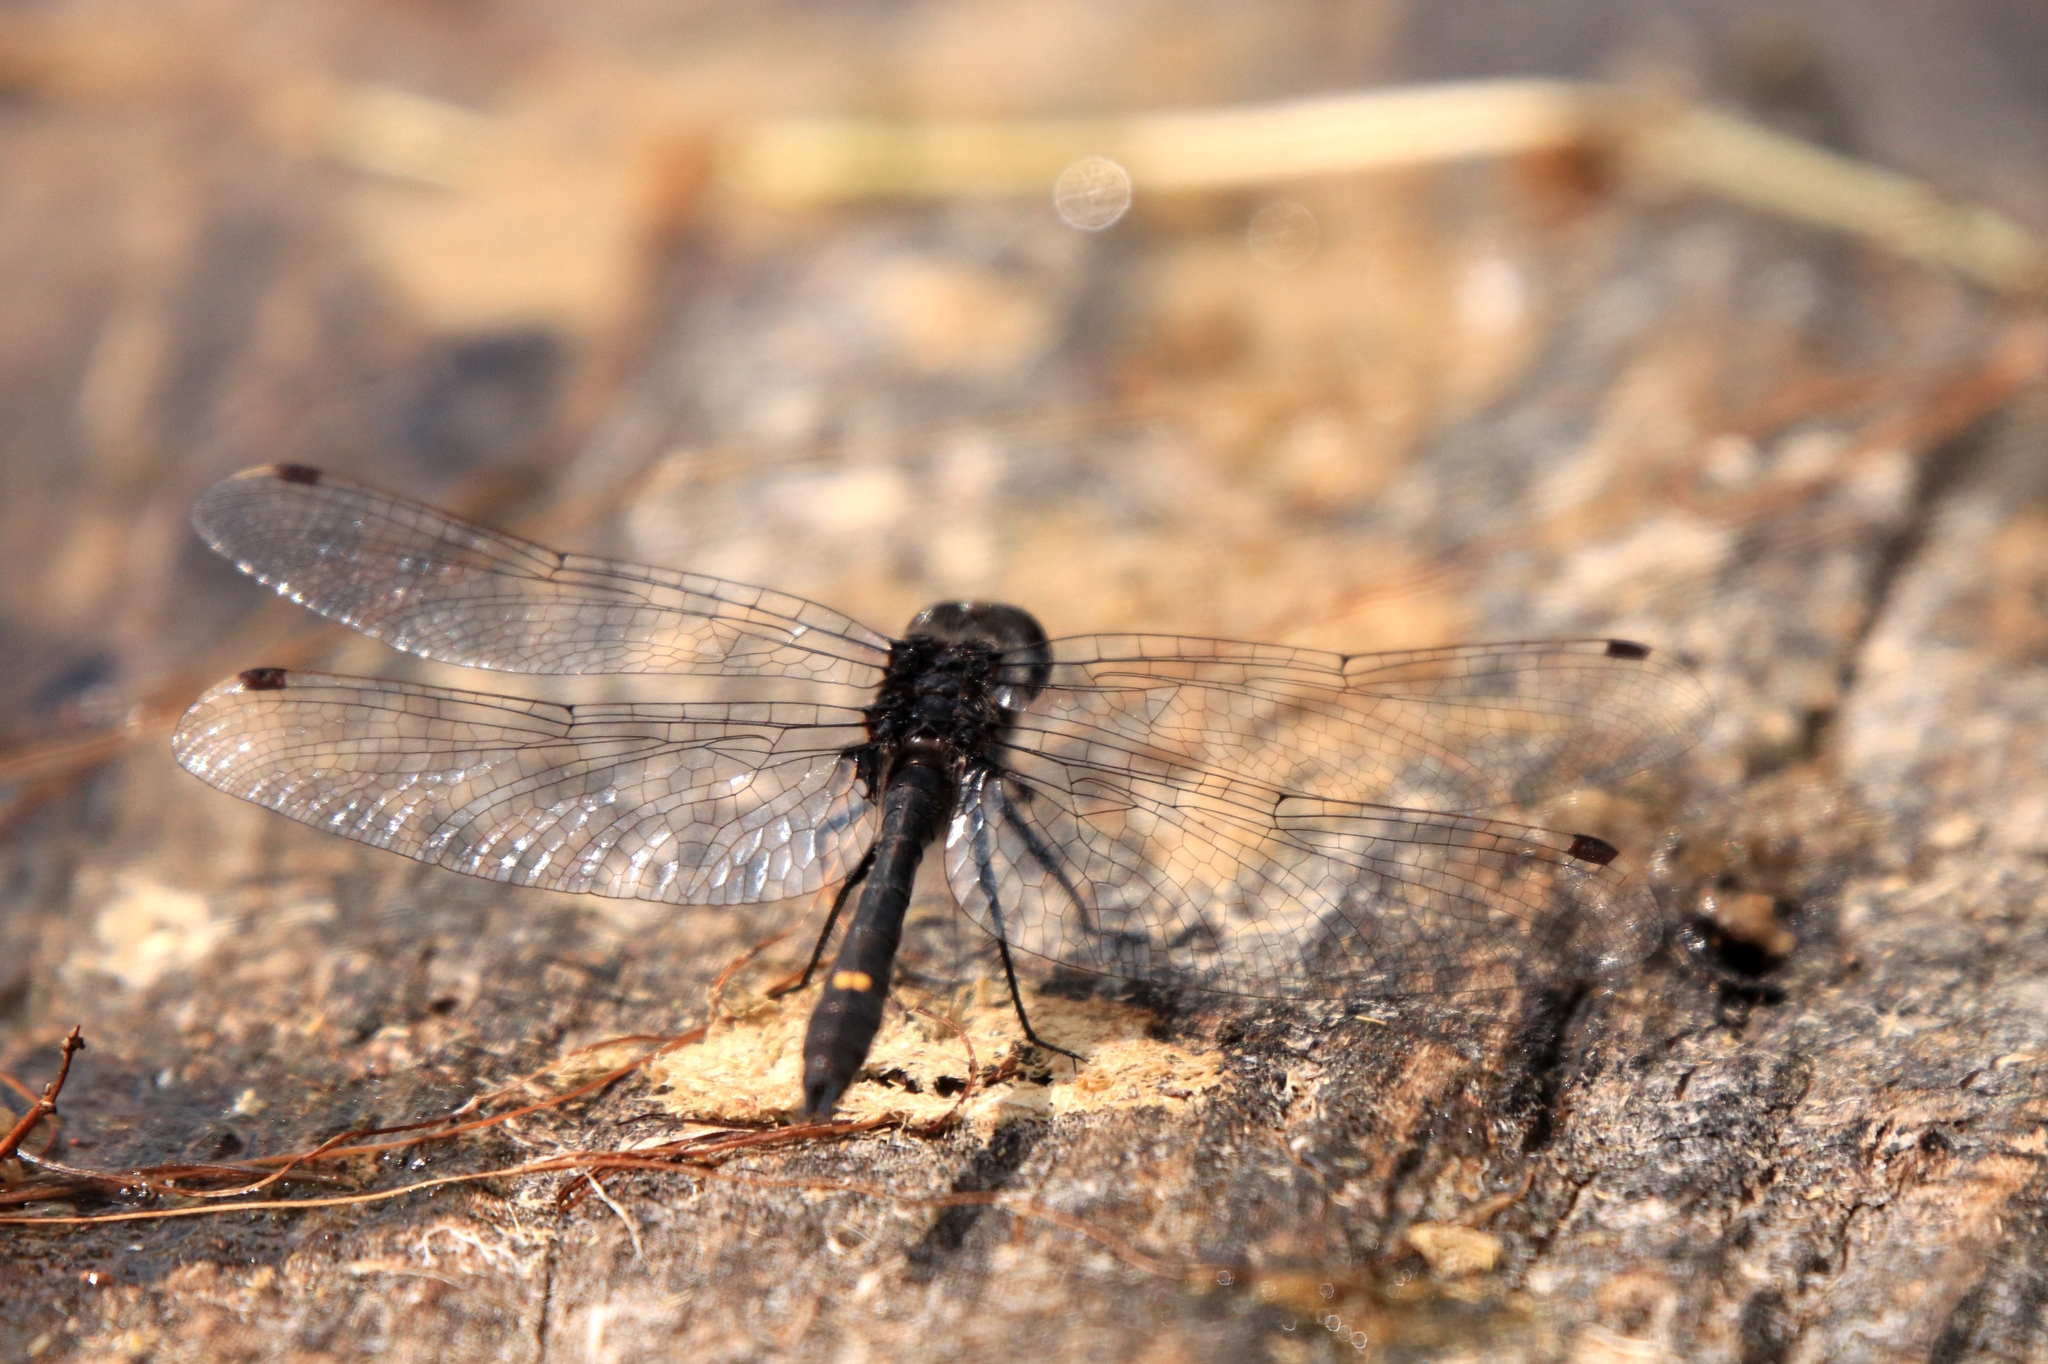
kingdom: Animalia
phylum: Arthropoda
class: Insecta
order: Odonata
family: Libellulidae
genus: Leucorrhinia
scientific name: Leucorrhinia intacta
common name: Dot-tailed whiteface
